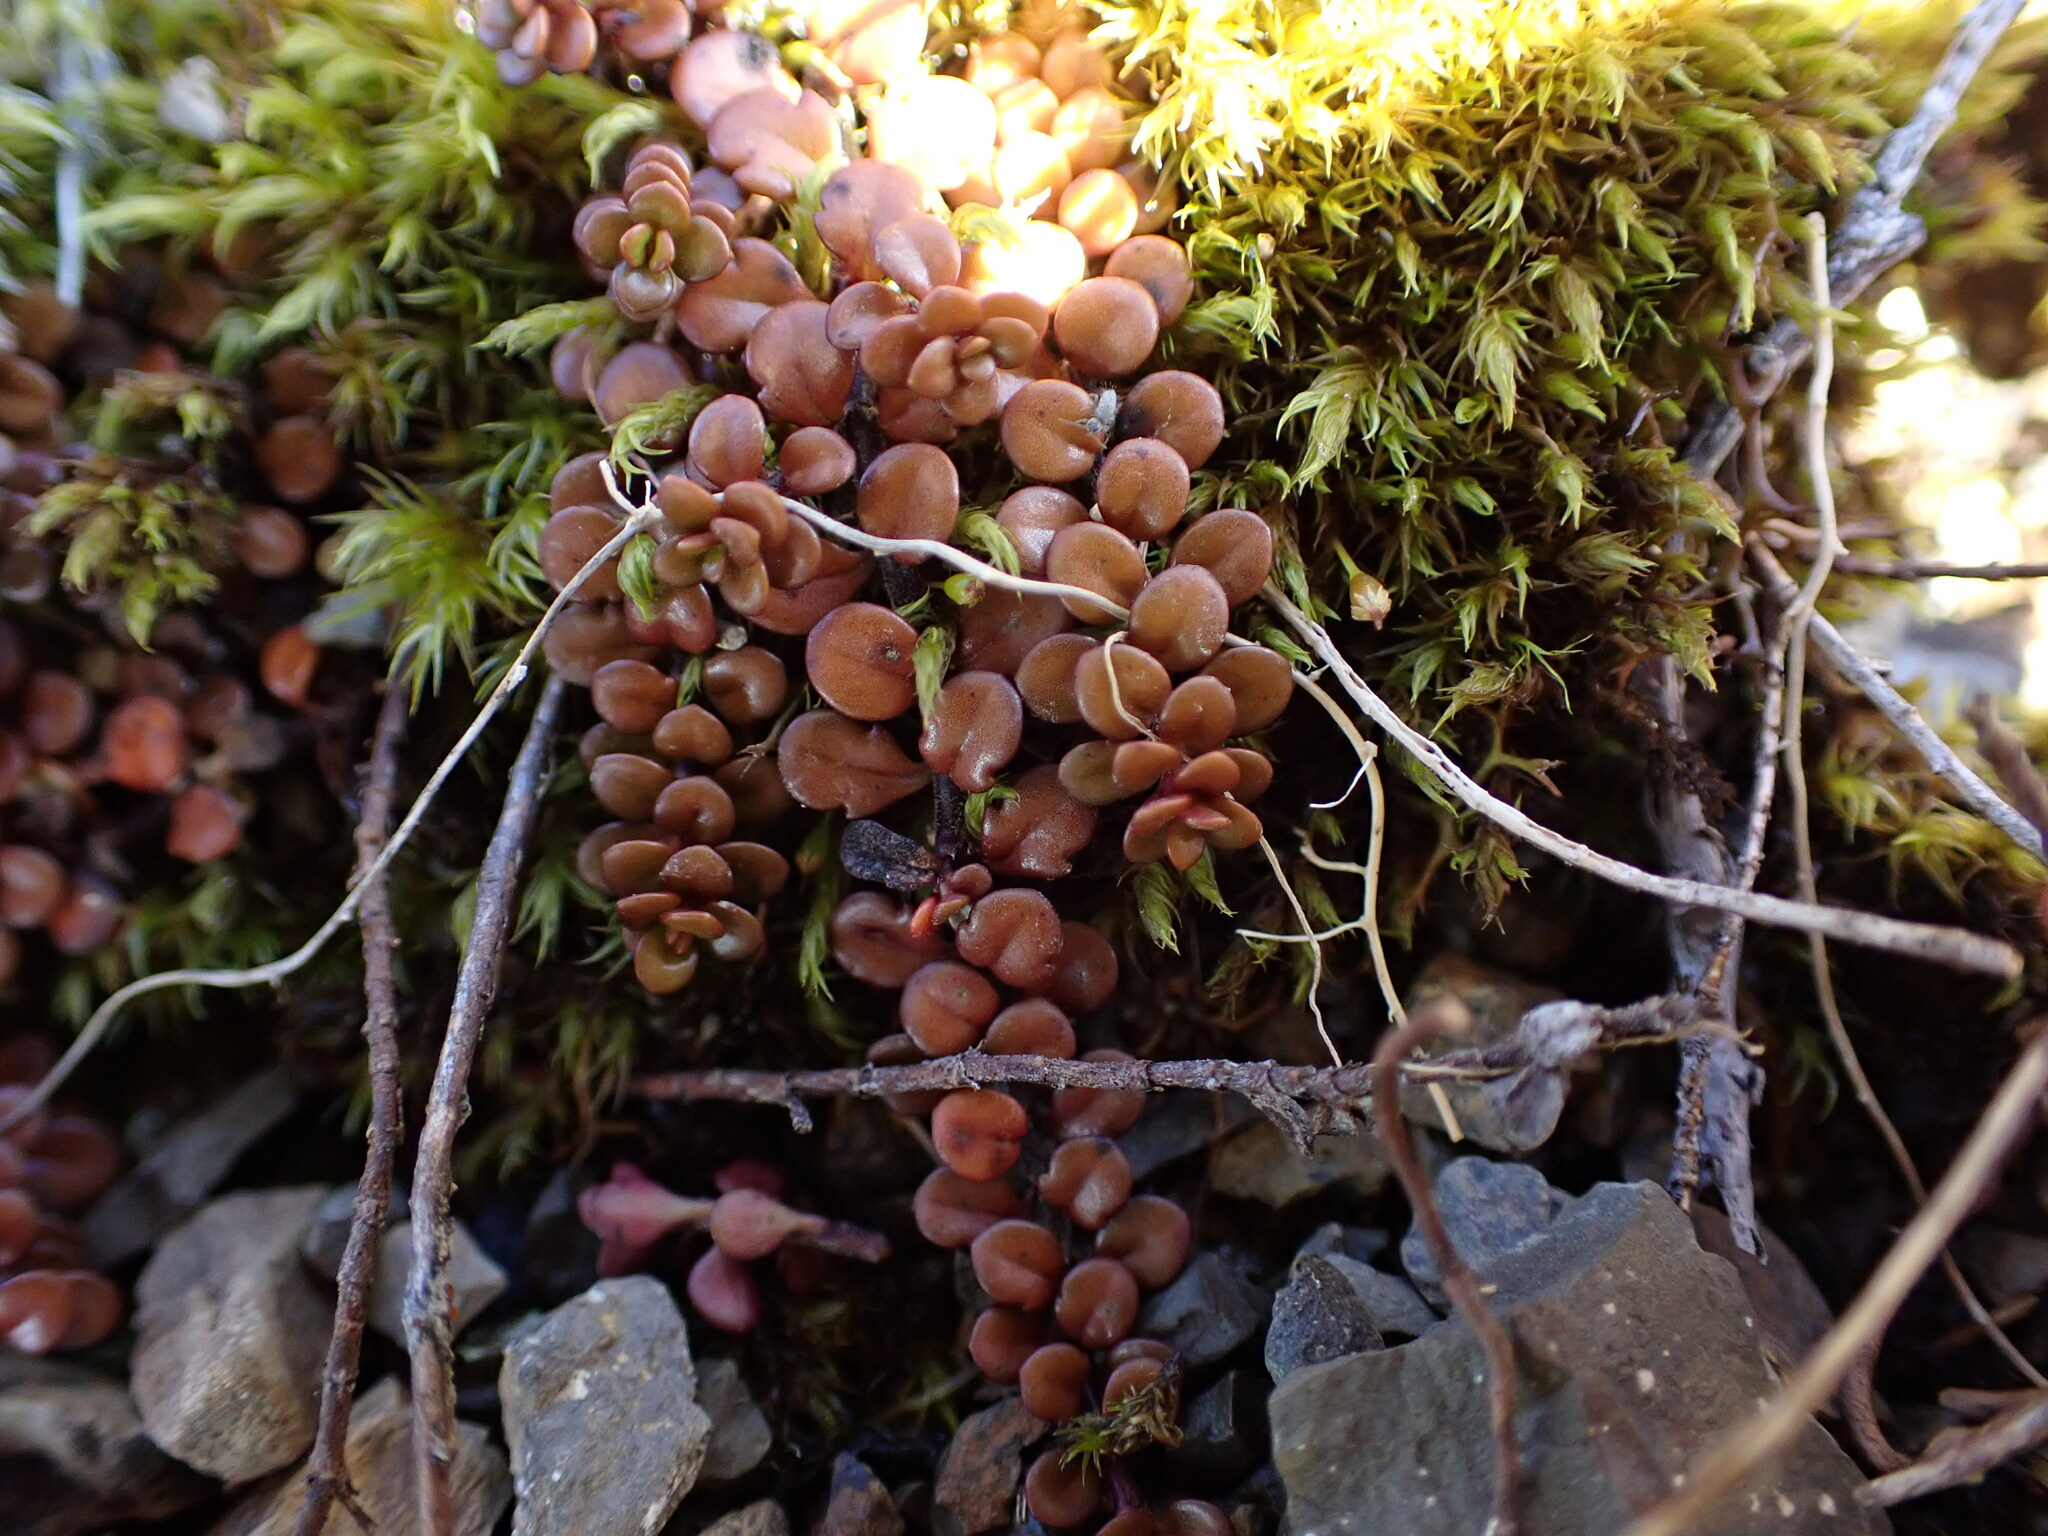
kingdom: Plantae
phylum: Tracheophyta
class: Magnoliopsida
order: Myrtales
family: Onagraceae
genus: Epilobium
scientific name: Epilobium brunnescens
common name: New zealand willowherb
